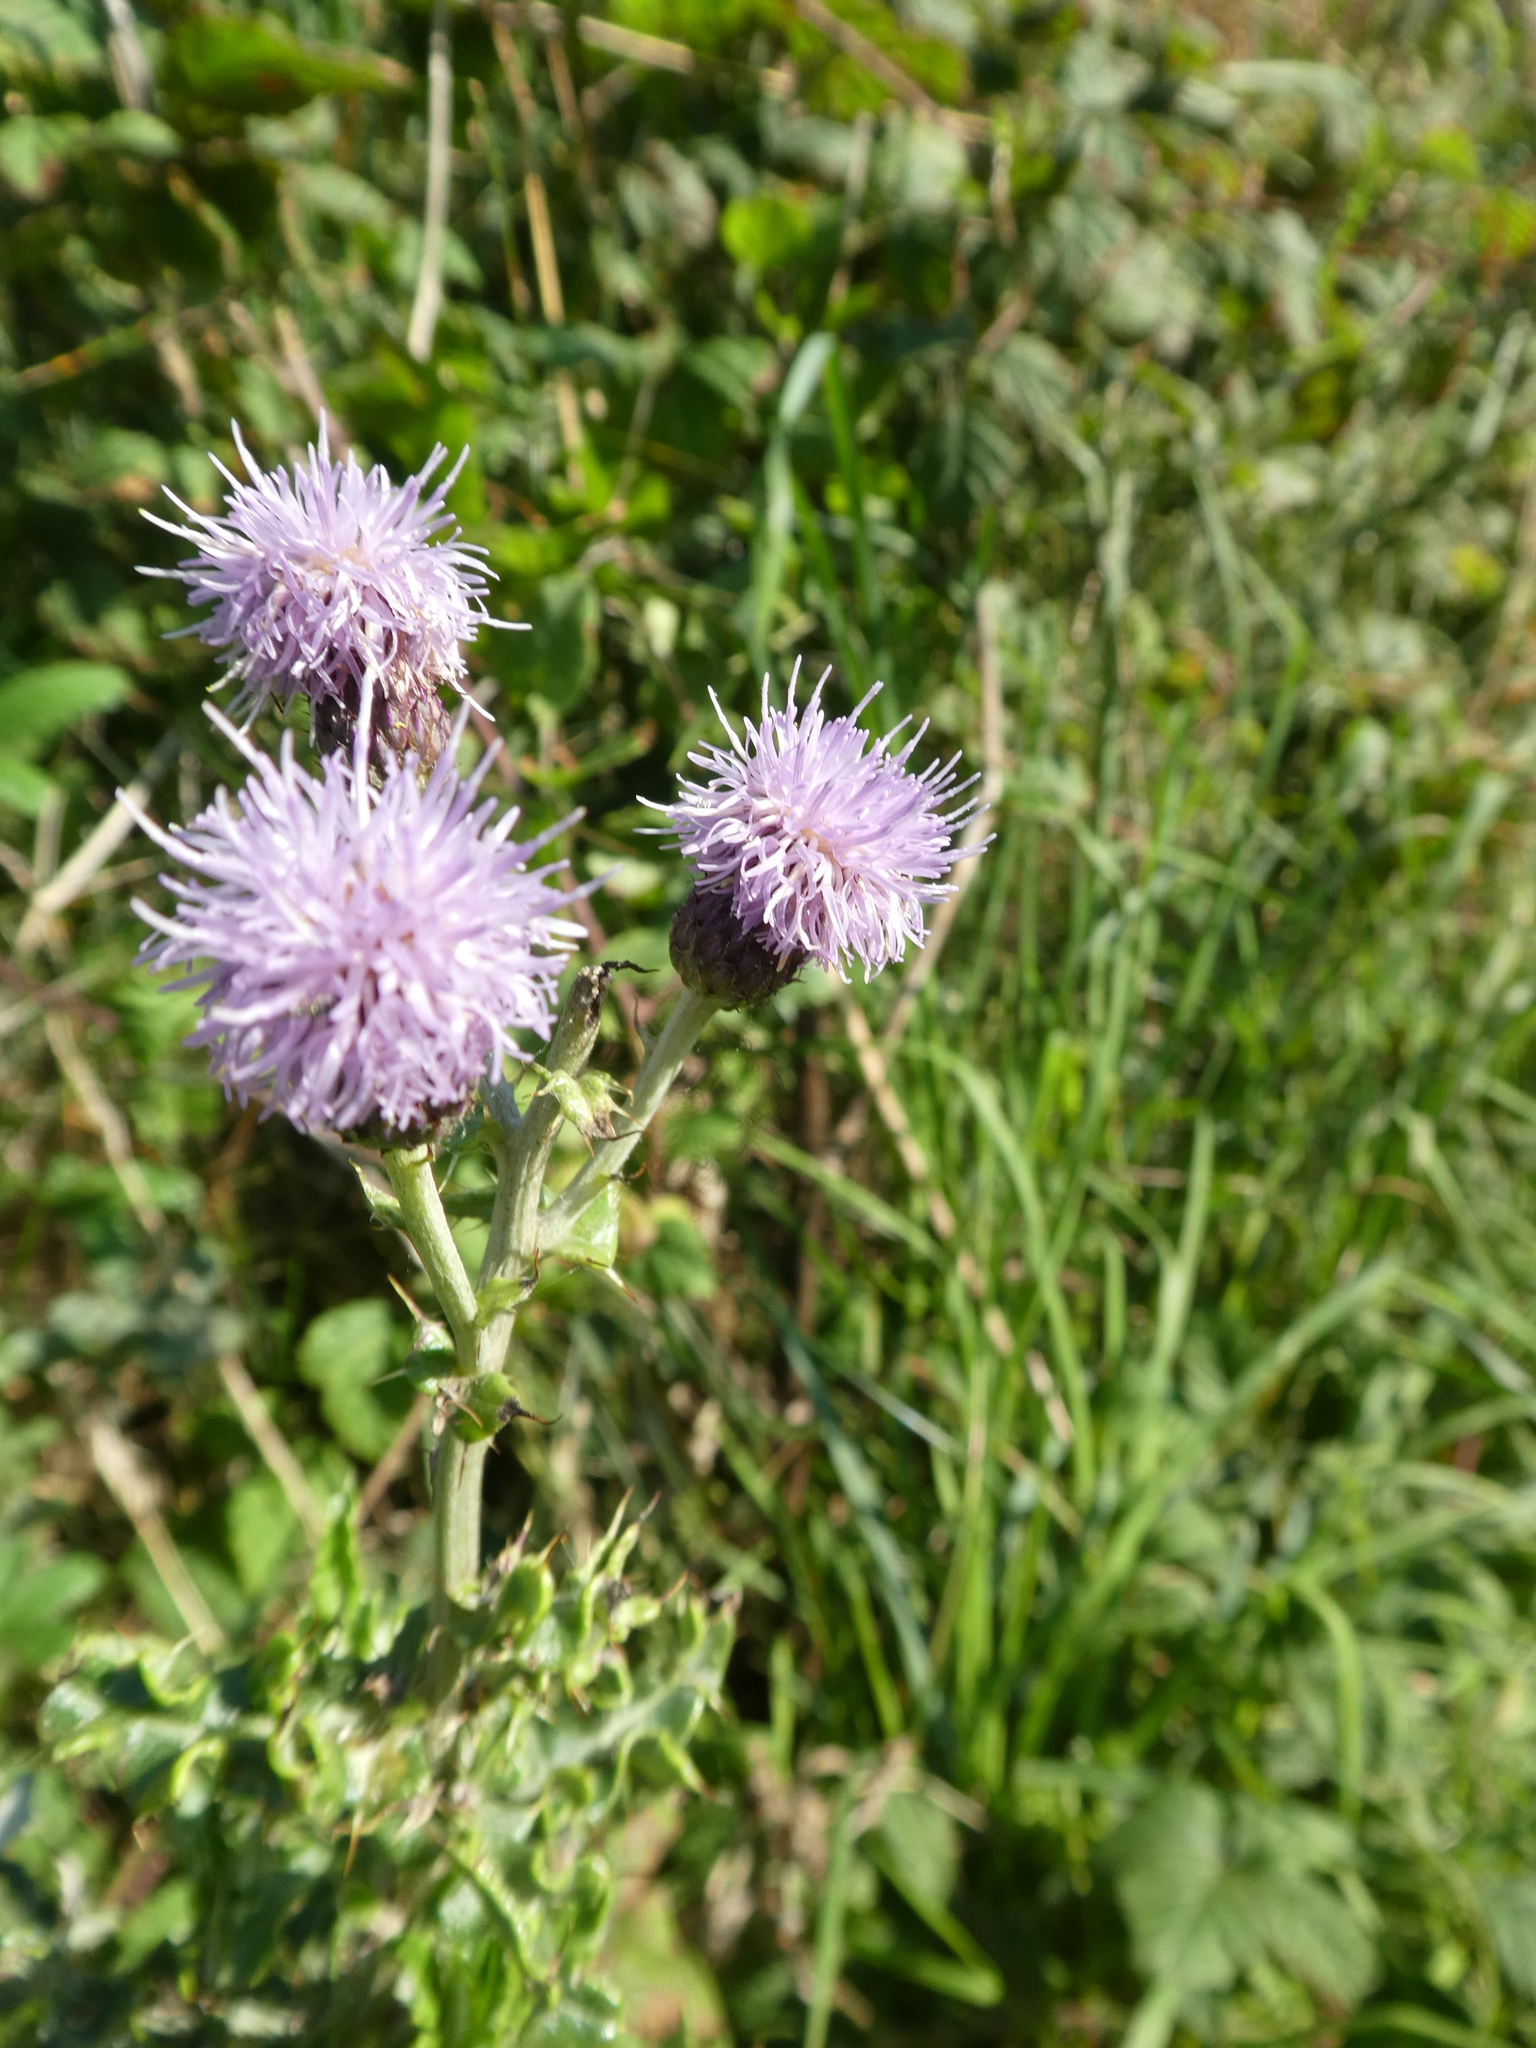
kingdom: Plantae
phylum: Tracheophyta
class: Magnoliopsida
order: Asterales
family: Asteraceae
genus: Cirsium
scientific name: Cirsium arvense
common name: Creeping thistle
